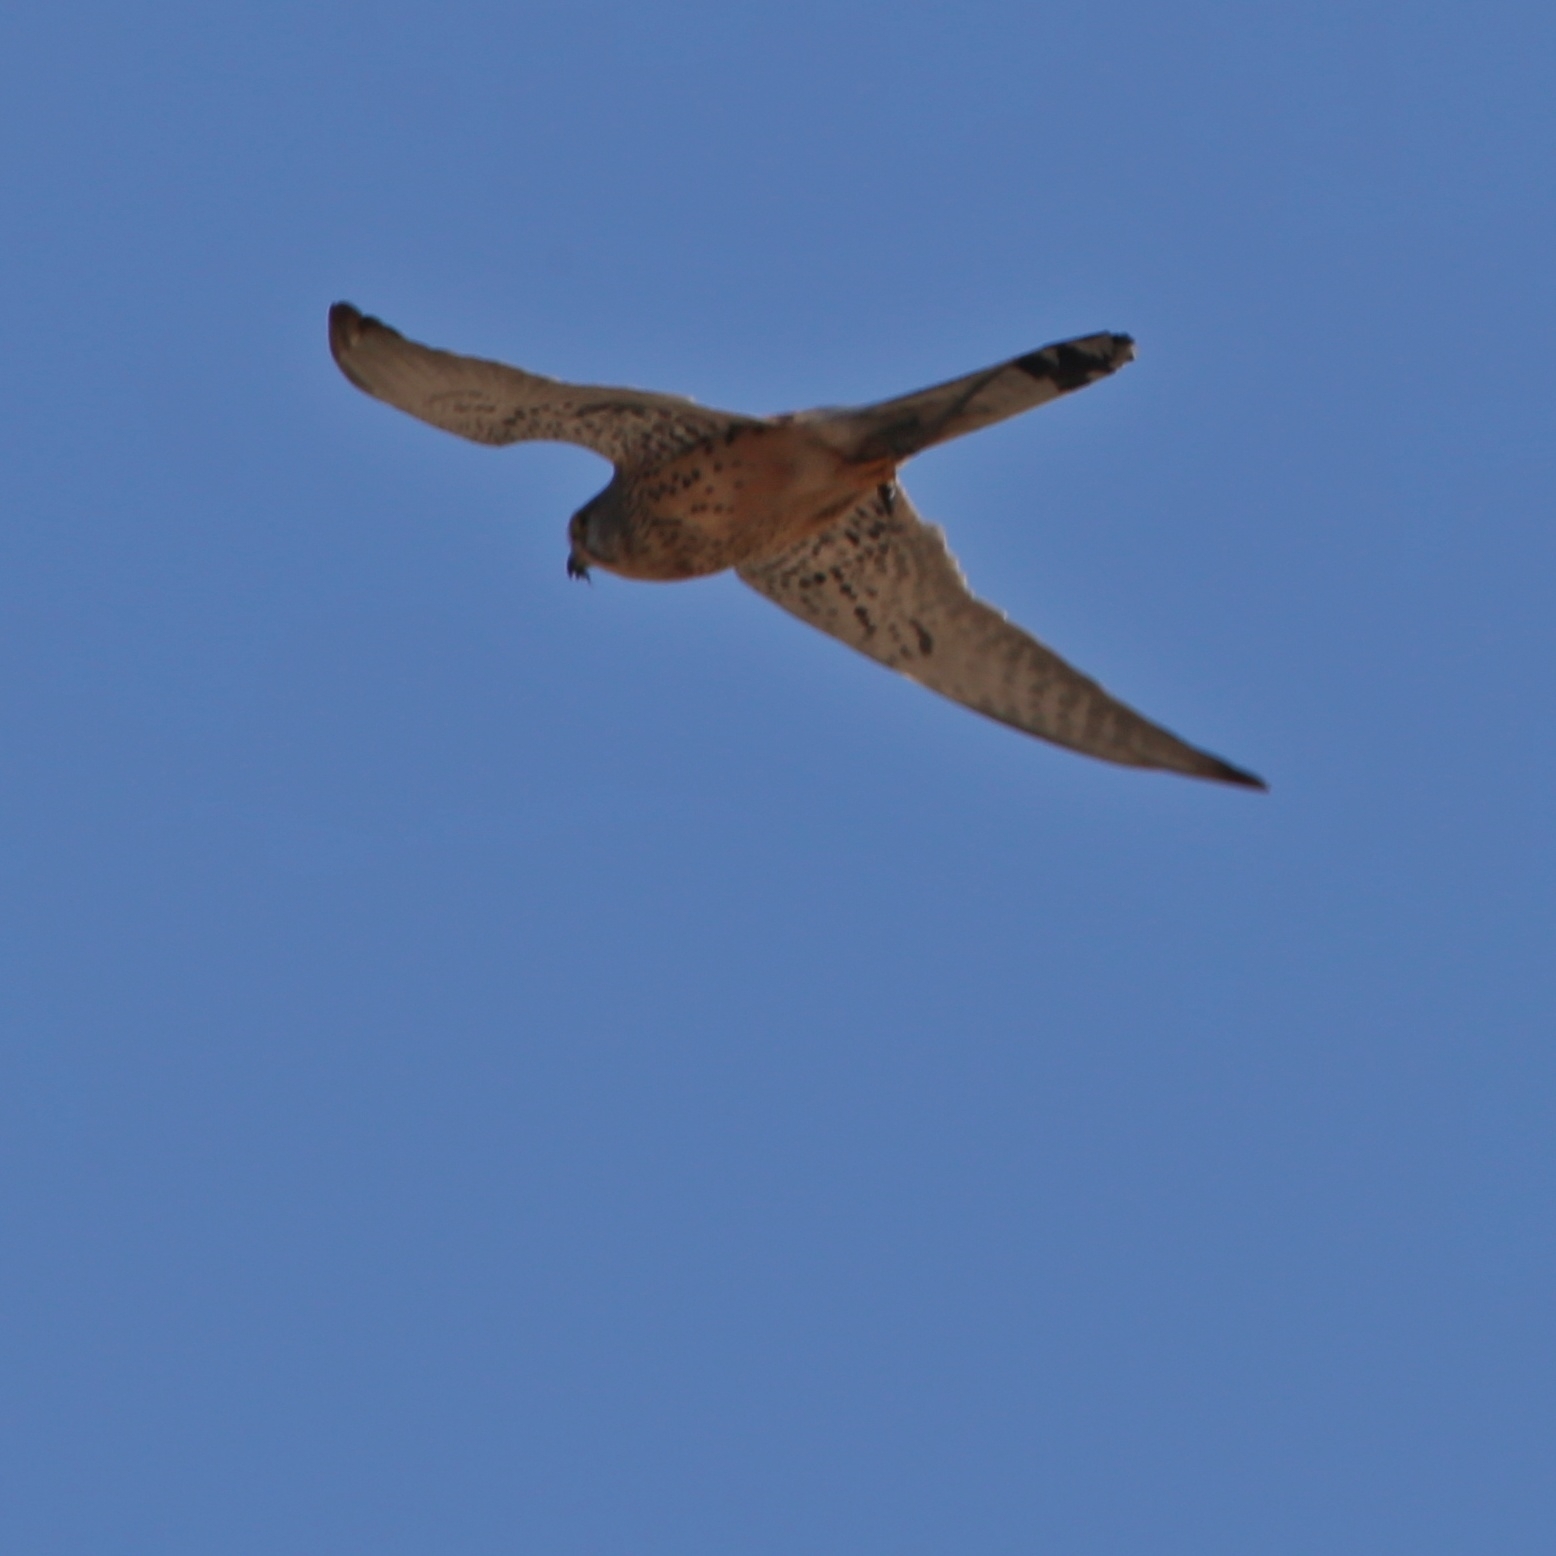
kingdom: Animalia
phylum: Chordata
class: Aves
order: Falconiformes
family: Falconidae
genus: Falco
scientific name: Falco tinnunculus
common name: Common kestrel
